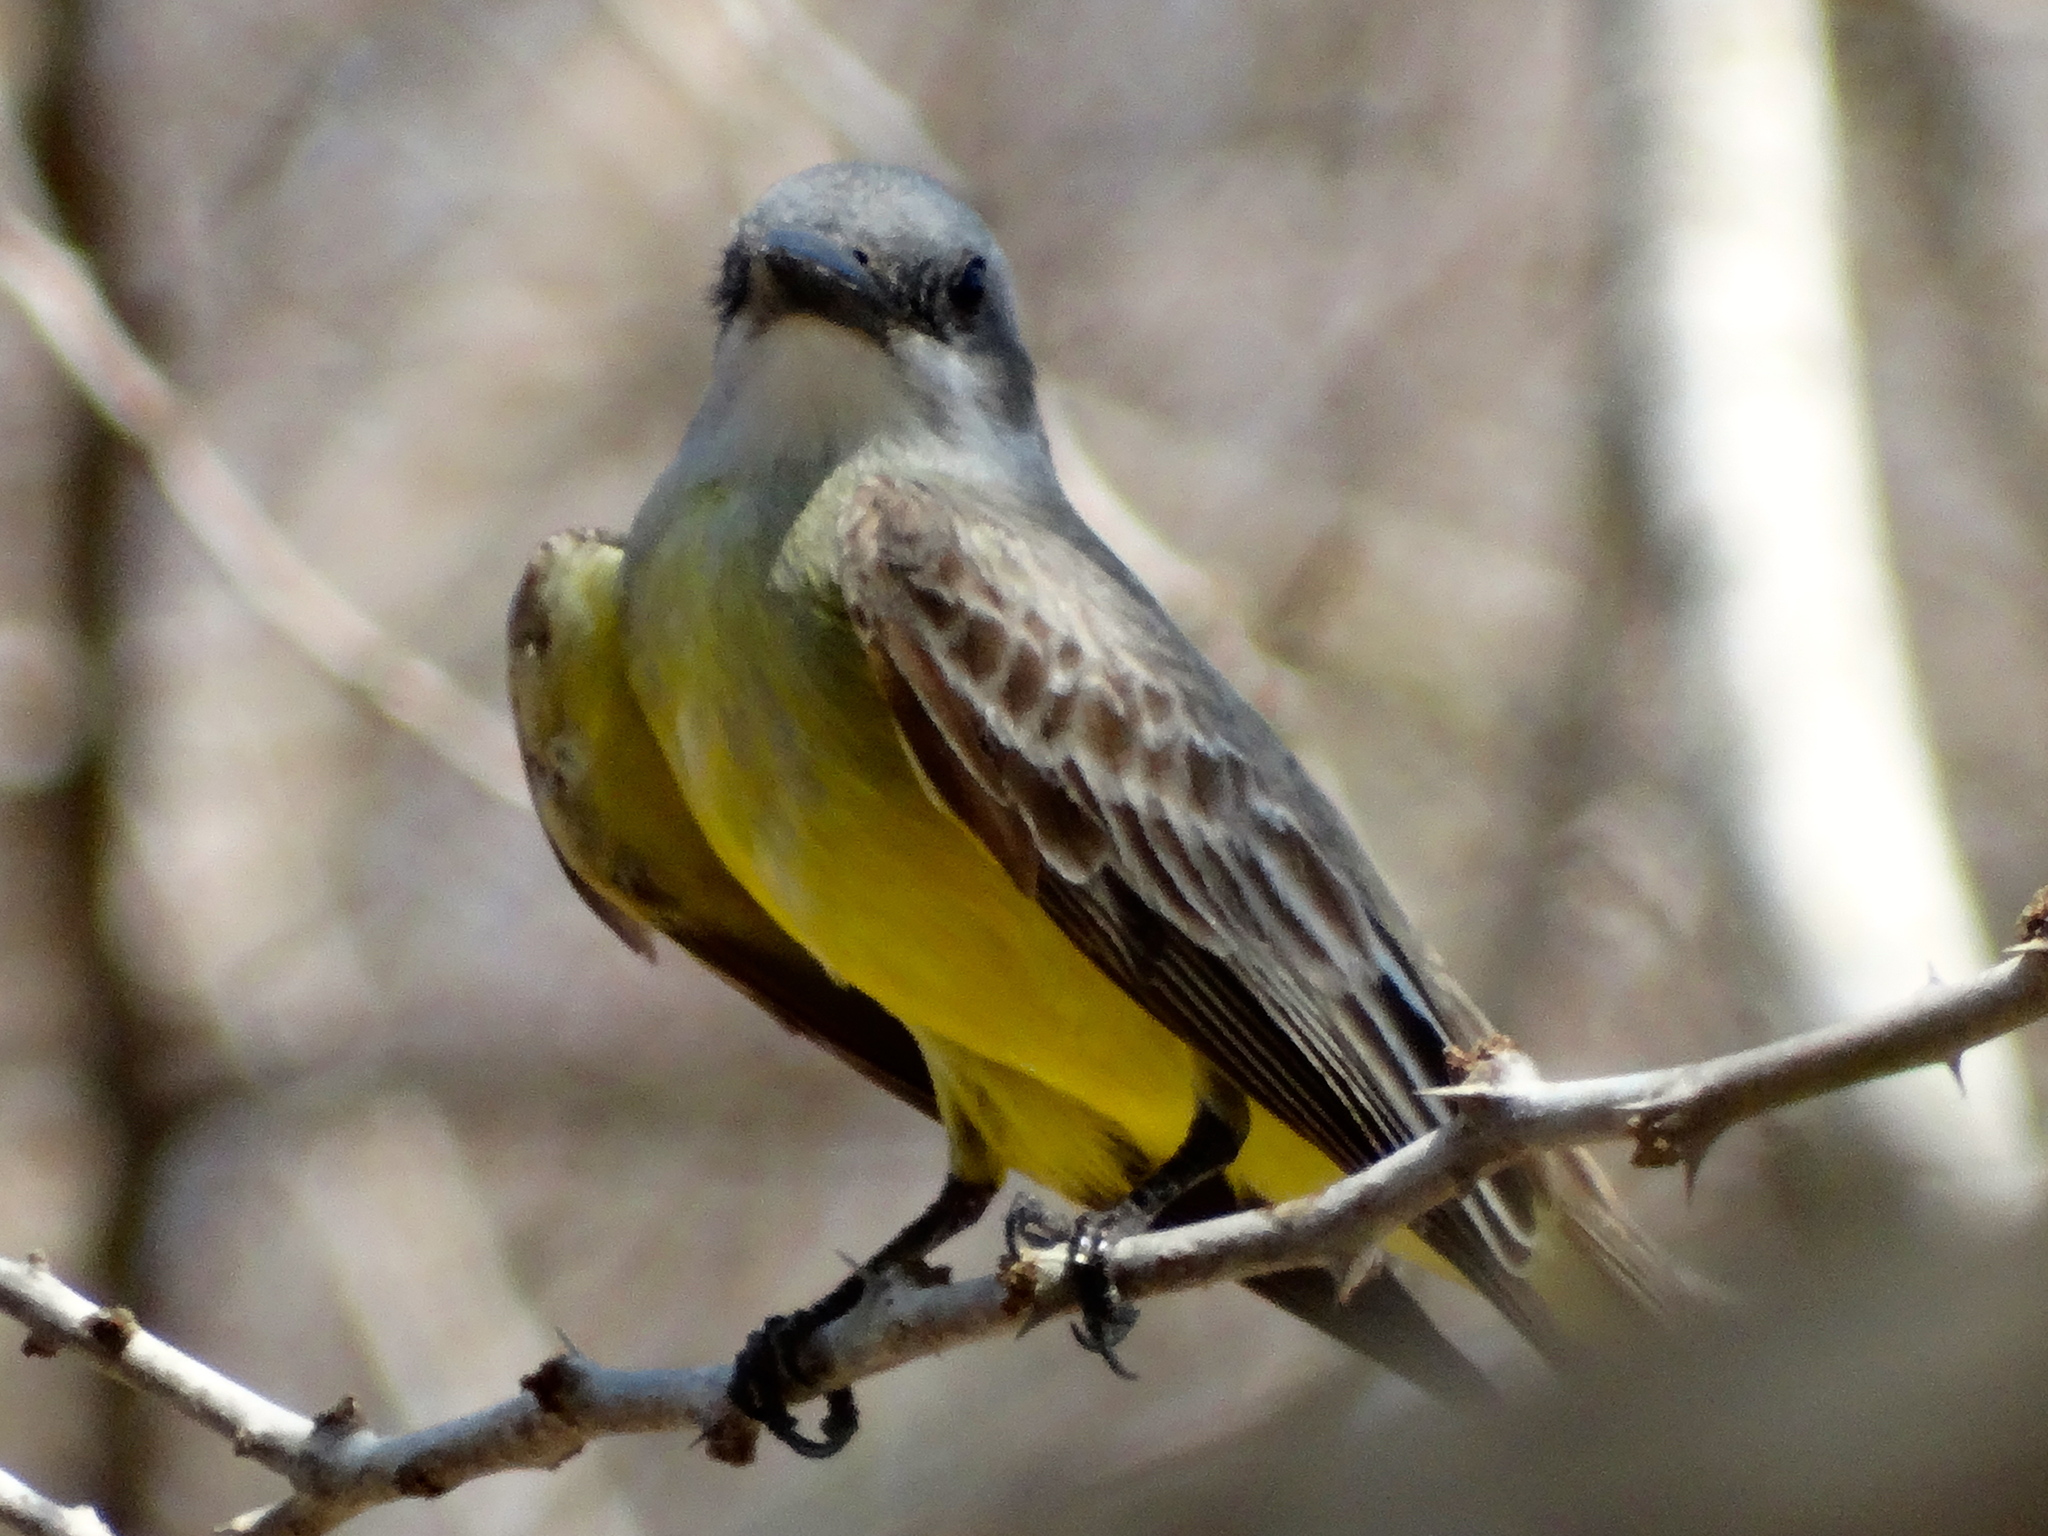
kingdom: Animalia
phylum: Chordata
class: Aves
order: Passeriformes
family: Tyrannidae
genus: Tyrannus
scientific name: Tyrannus melancholicus
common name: Tropical kingbird
